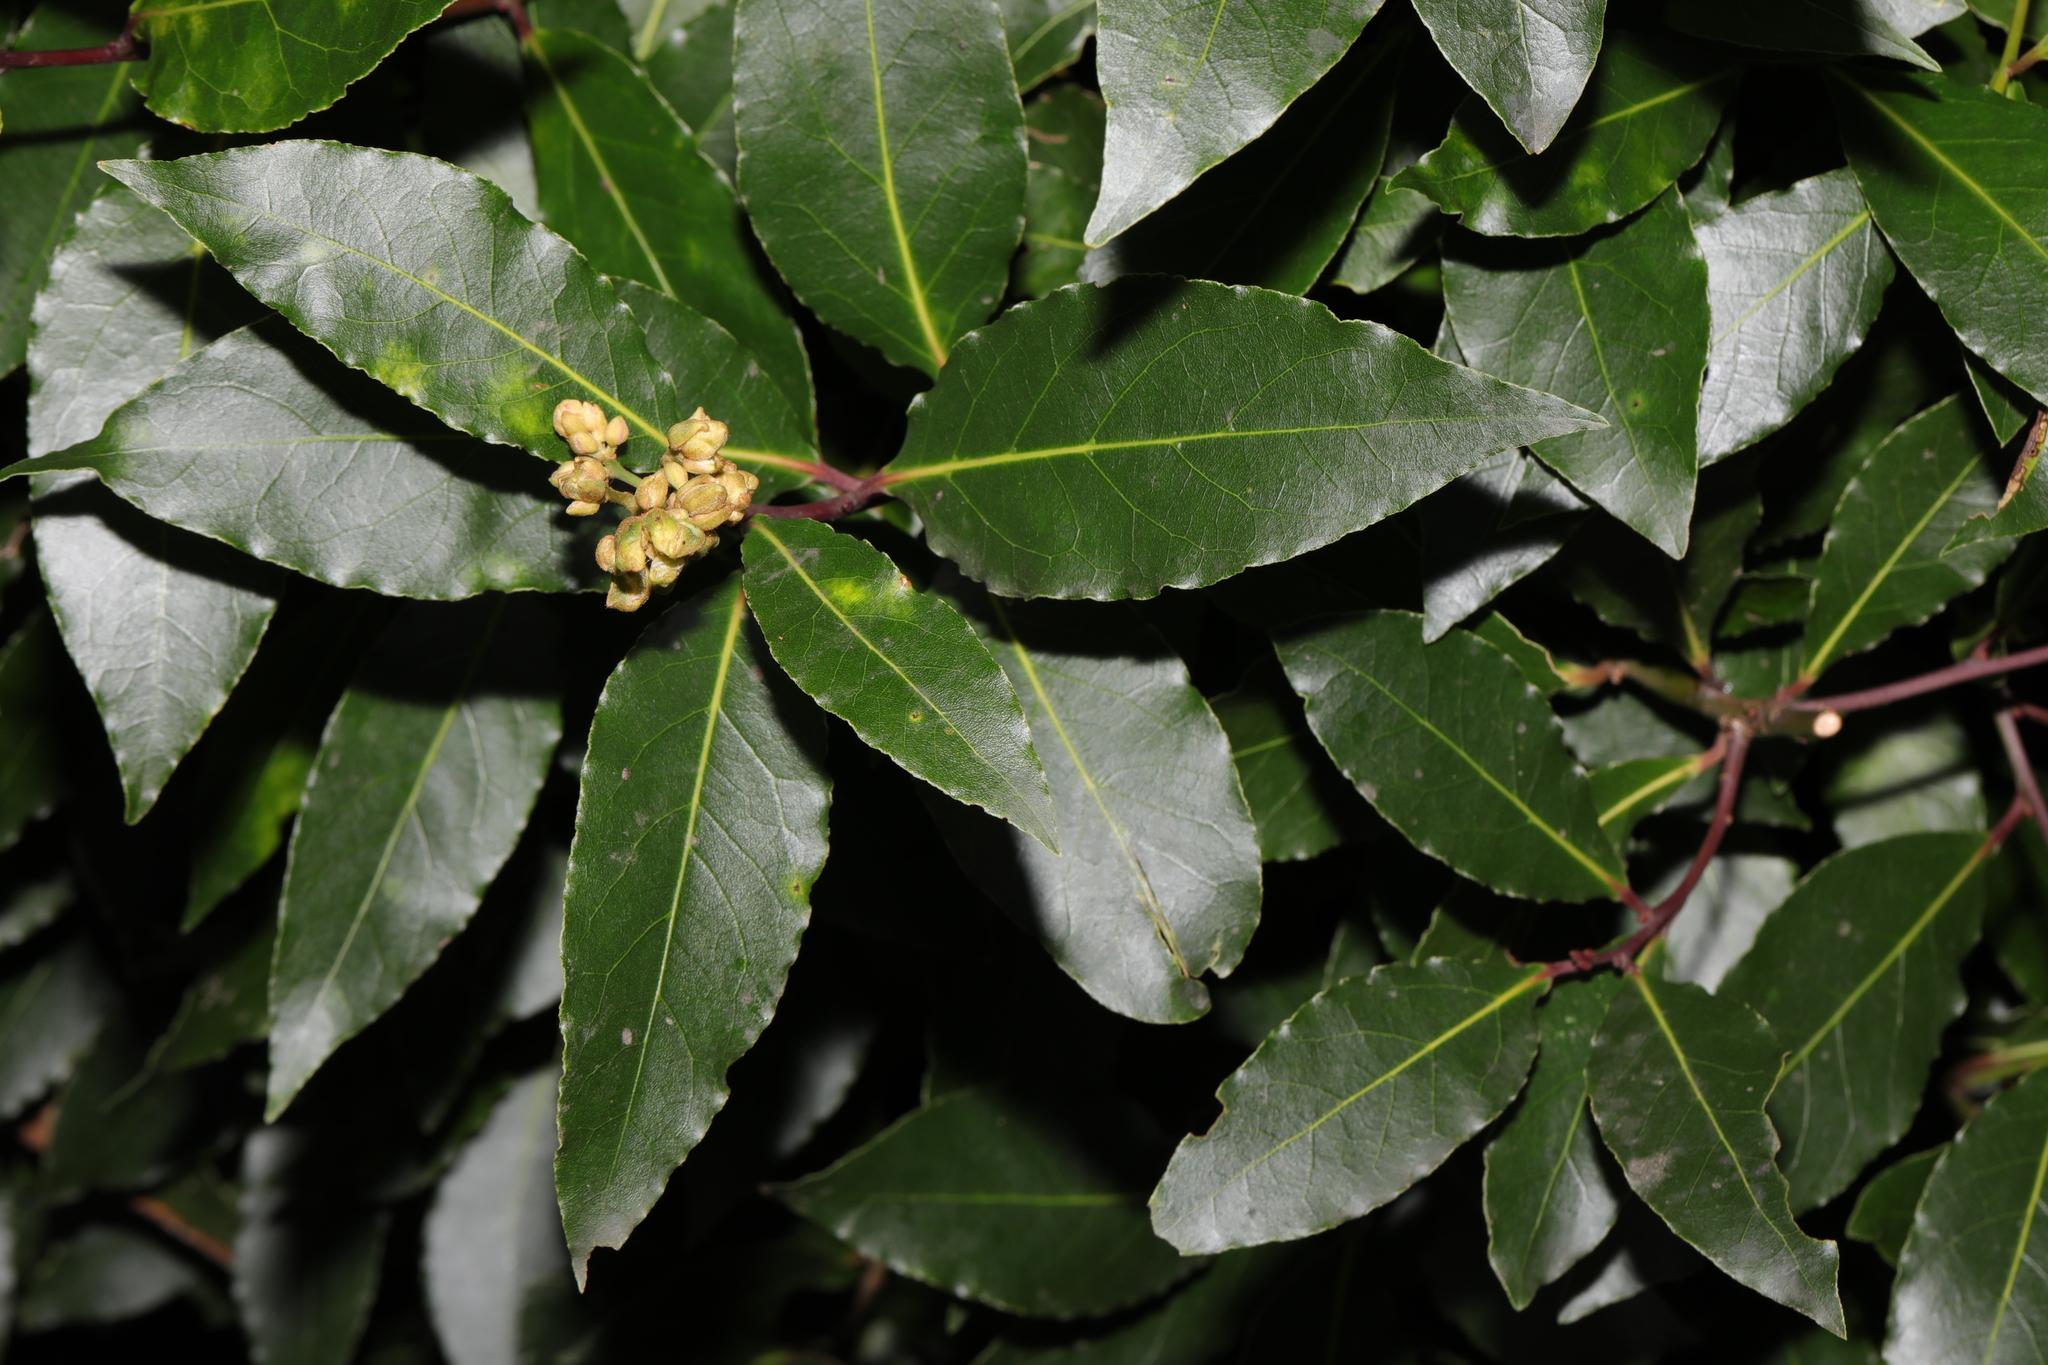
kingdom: Plantae
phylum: Tracheophyta
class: Magnoliopsida
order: Laurales
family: Lauraceae
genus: Laurus
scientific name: Laurus nobilis
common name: Bay
